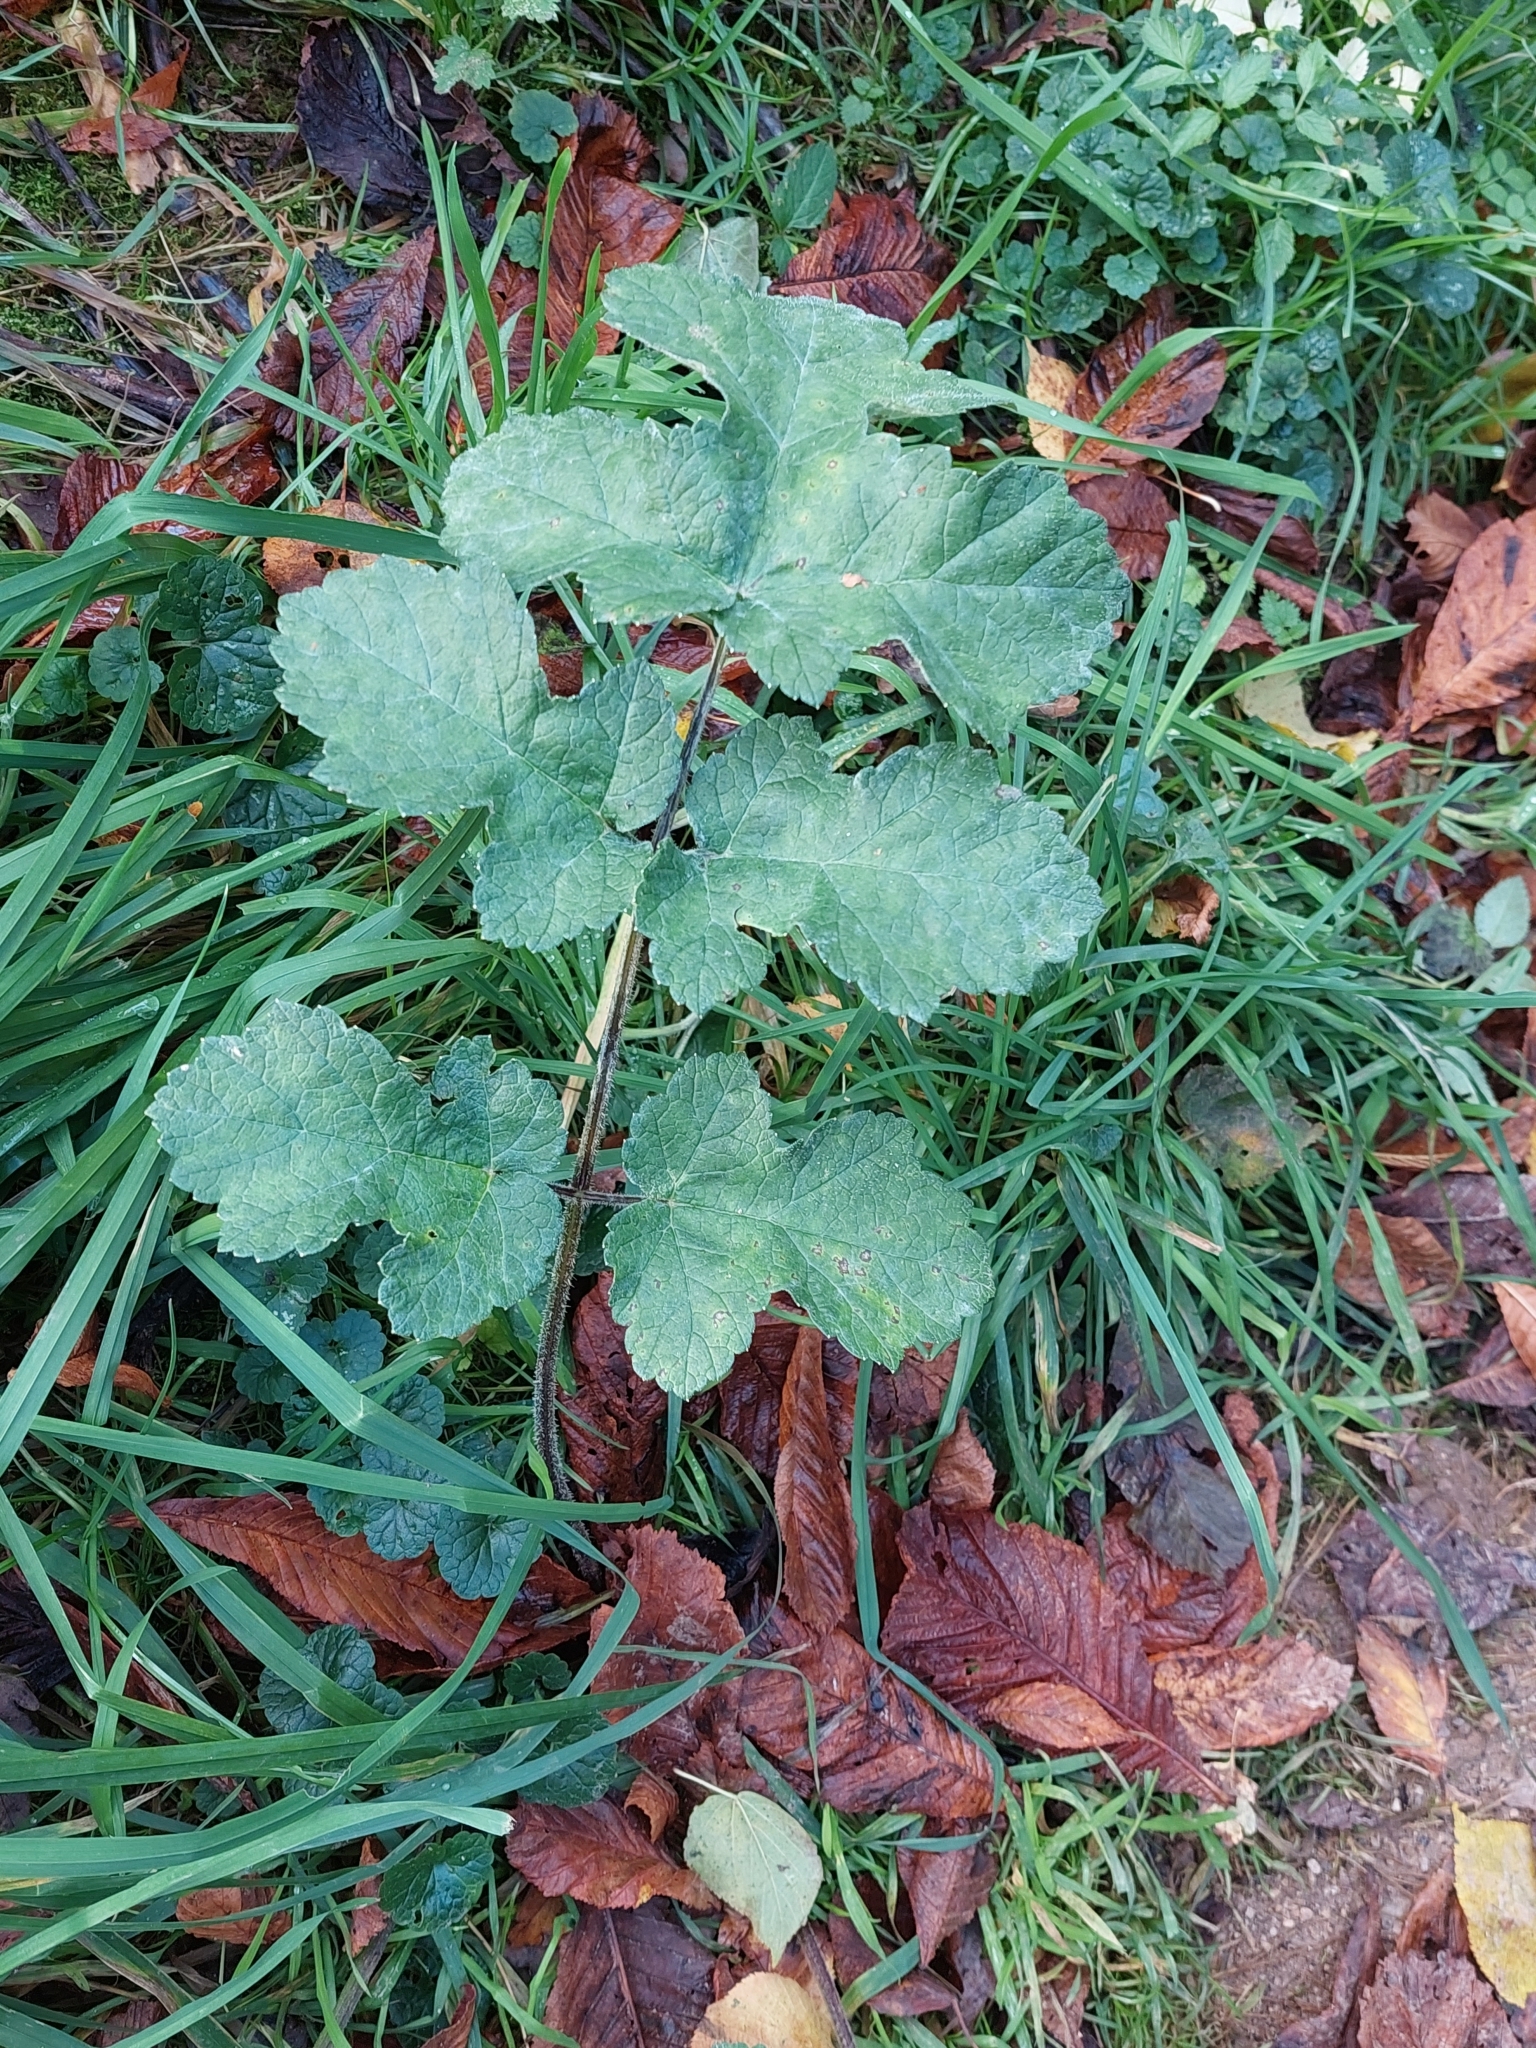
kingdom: Plantae
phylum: Tracheophyta
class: Magnoliopsida
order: Apiales
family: Apiaceae
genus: Heracleum
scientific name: Heracleum sphondylium
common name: Hogweed
